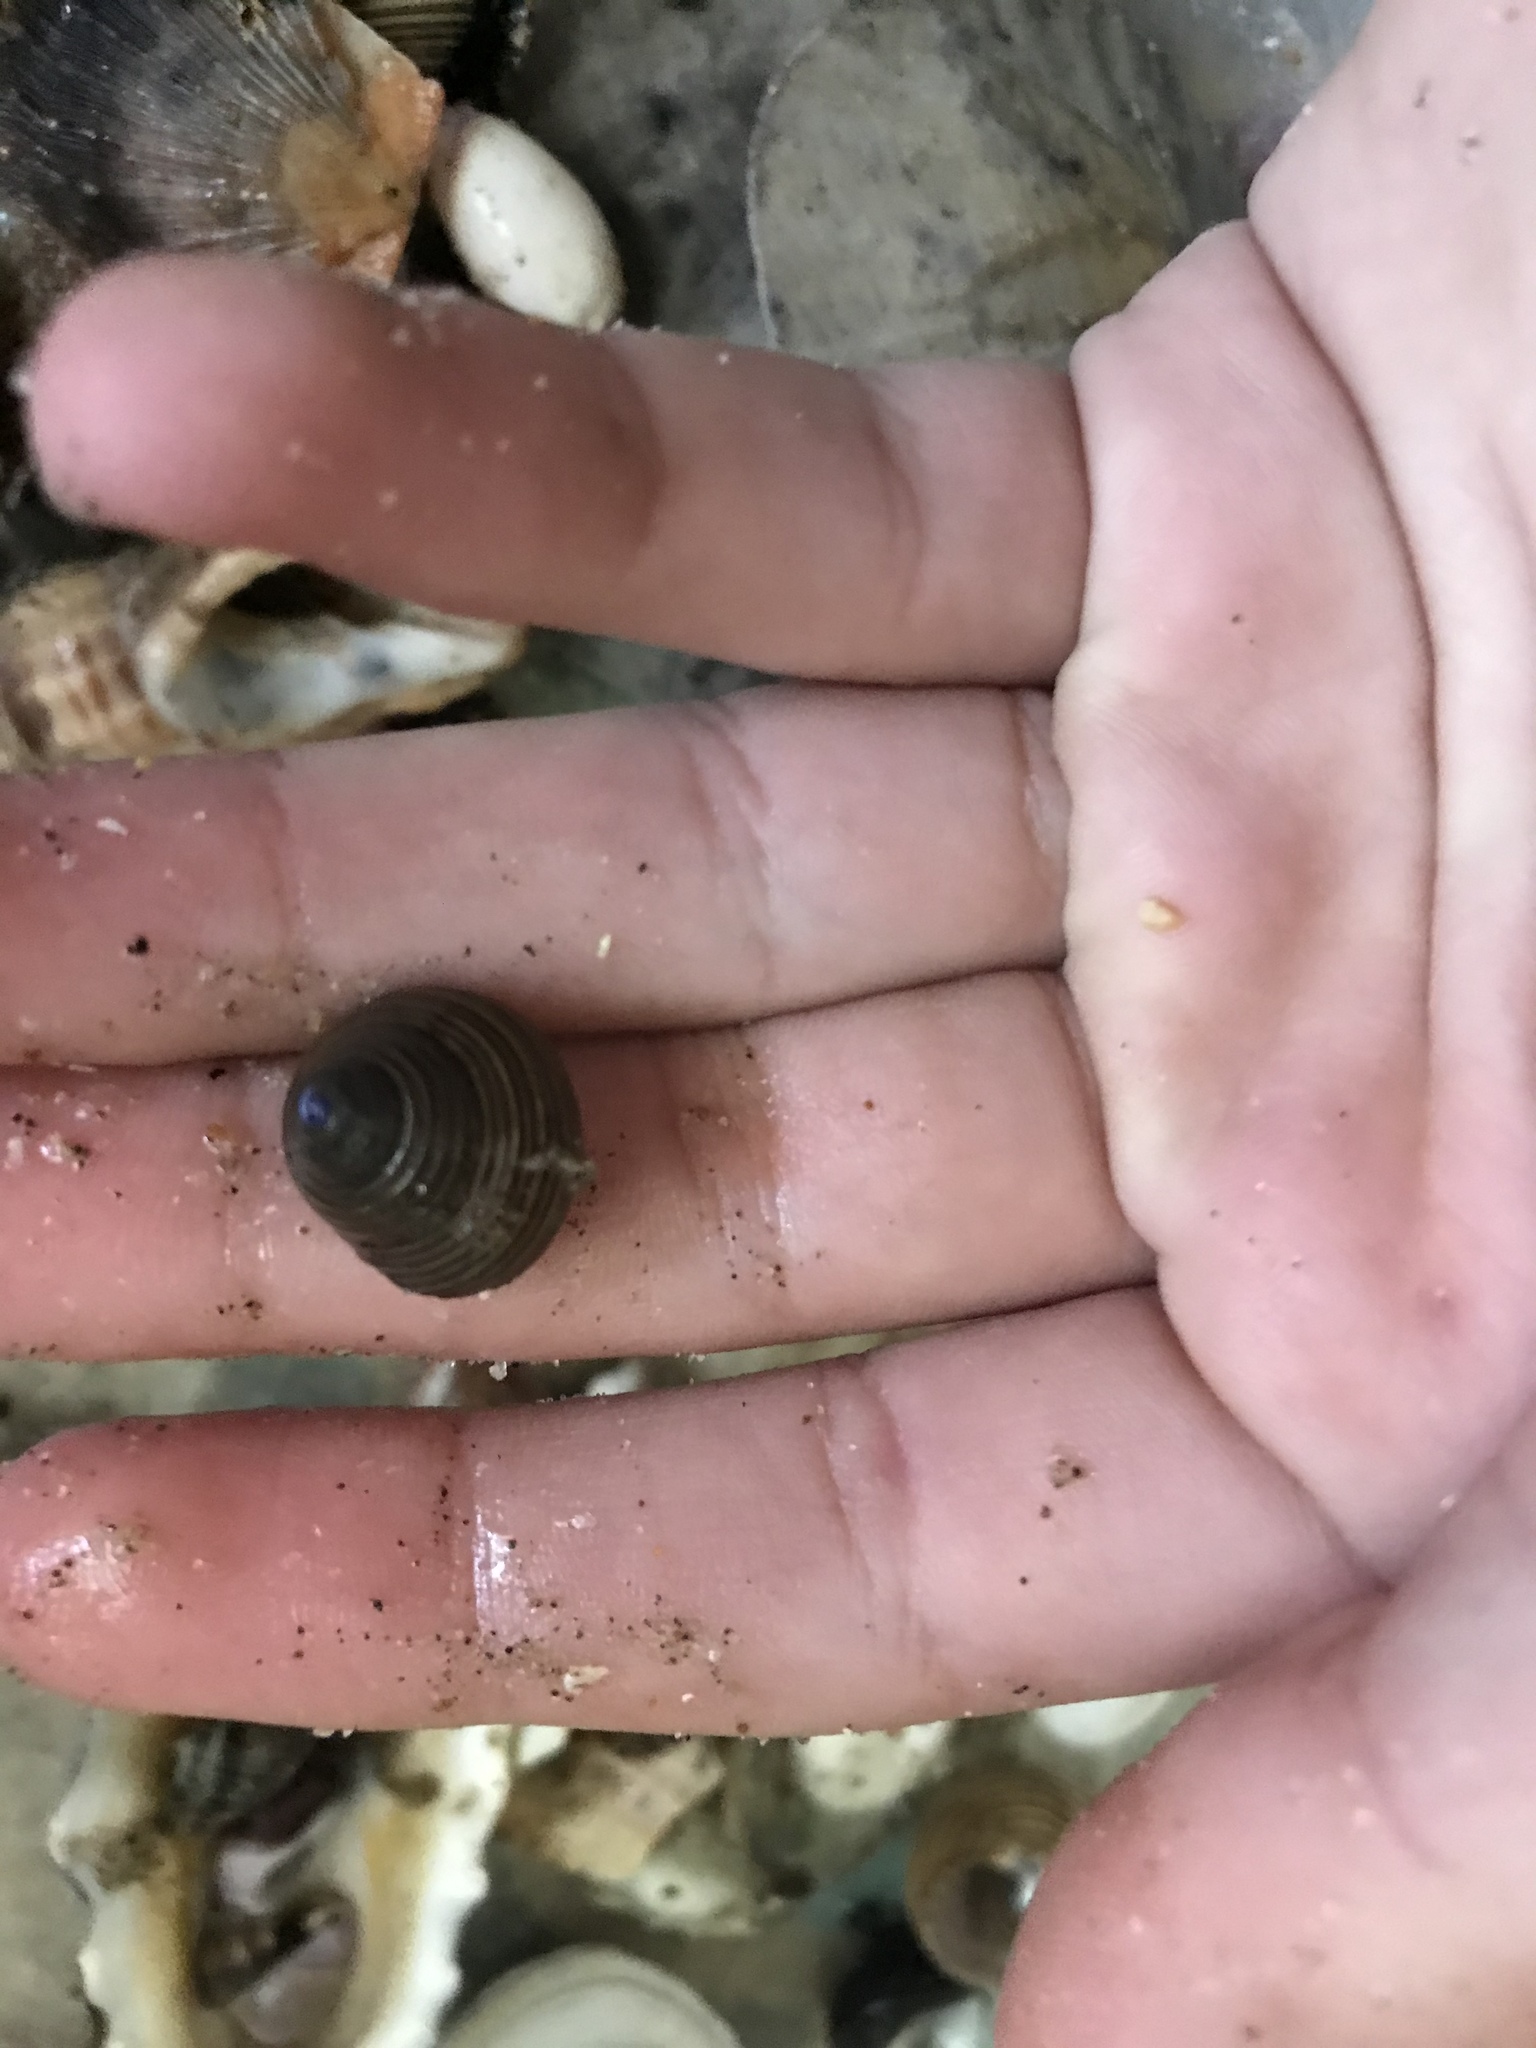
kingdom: Animalia
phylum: Mollusca
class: Gastropoda
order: Trochida
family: Calliostomatidae
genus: Calliostoma
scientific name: Calliostoma ligatum
